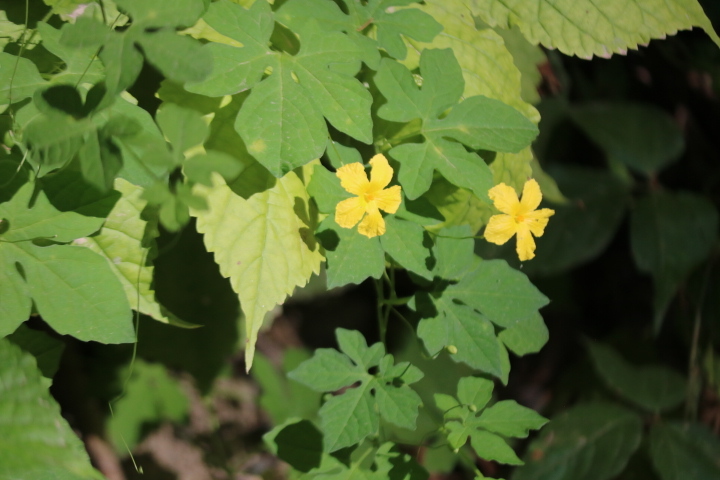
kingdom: Plantae
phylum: Tracheophyta
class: Magnoliopsida
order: Cucurbitales
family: Cucurbitaceae
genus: Momordica
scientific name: Momordica charantia
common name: Balsampear
